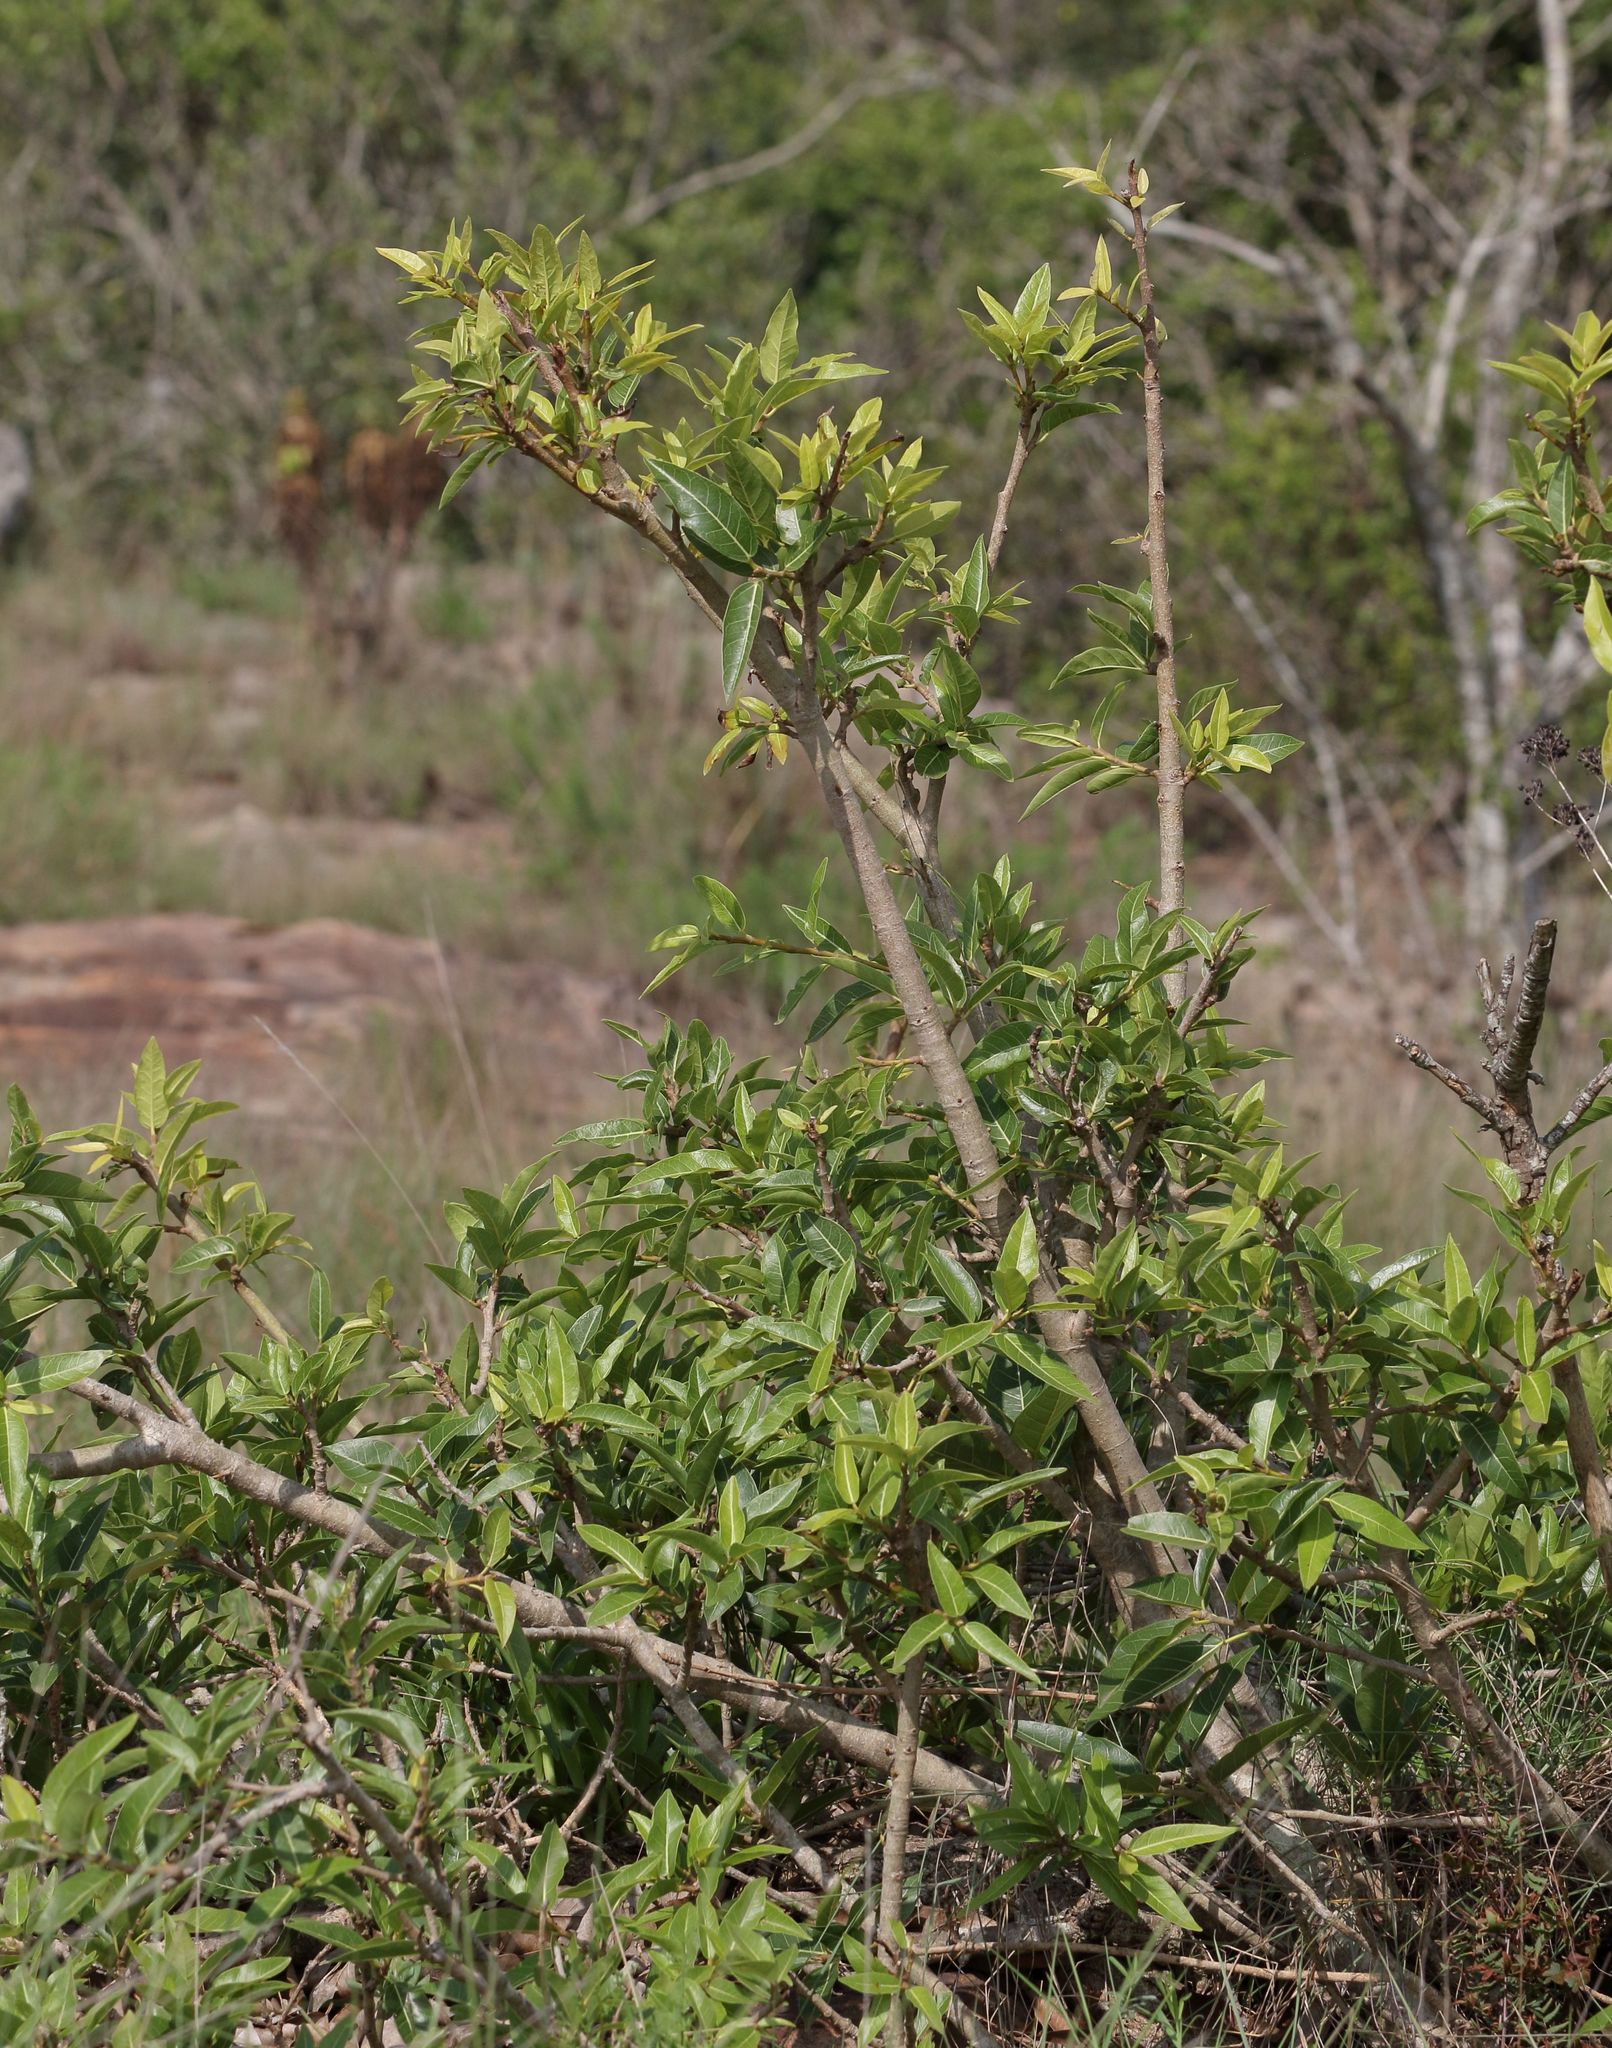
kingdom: Plantae
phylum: Tracheophyta
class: Magnoliopsida
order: Rosales
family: Moraceae
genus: Ficus
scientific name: Ficus ingens
